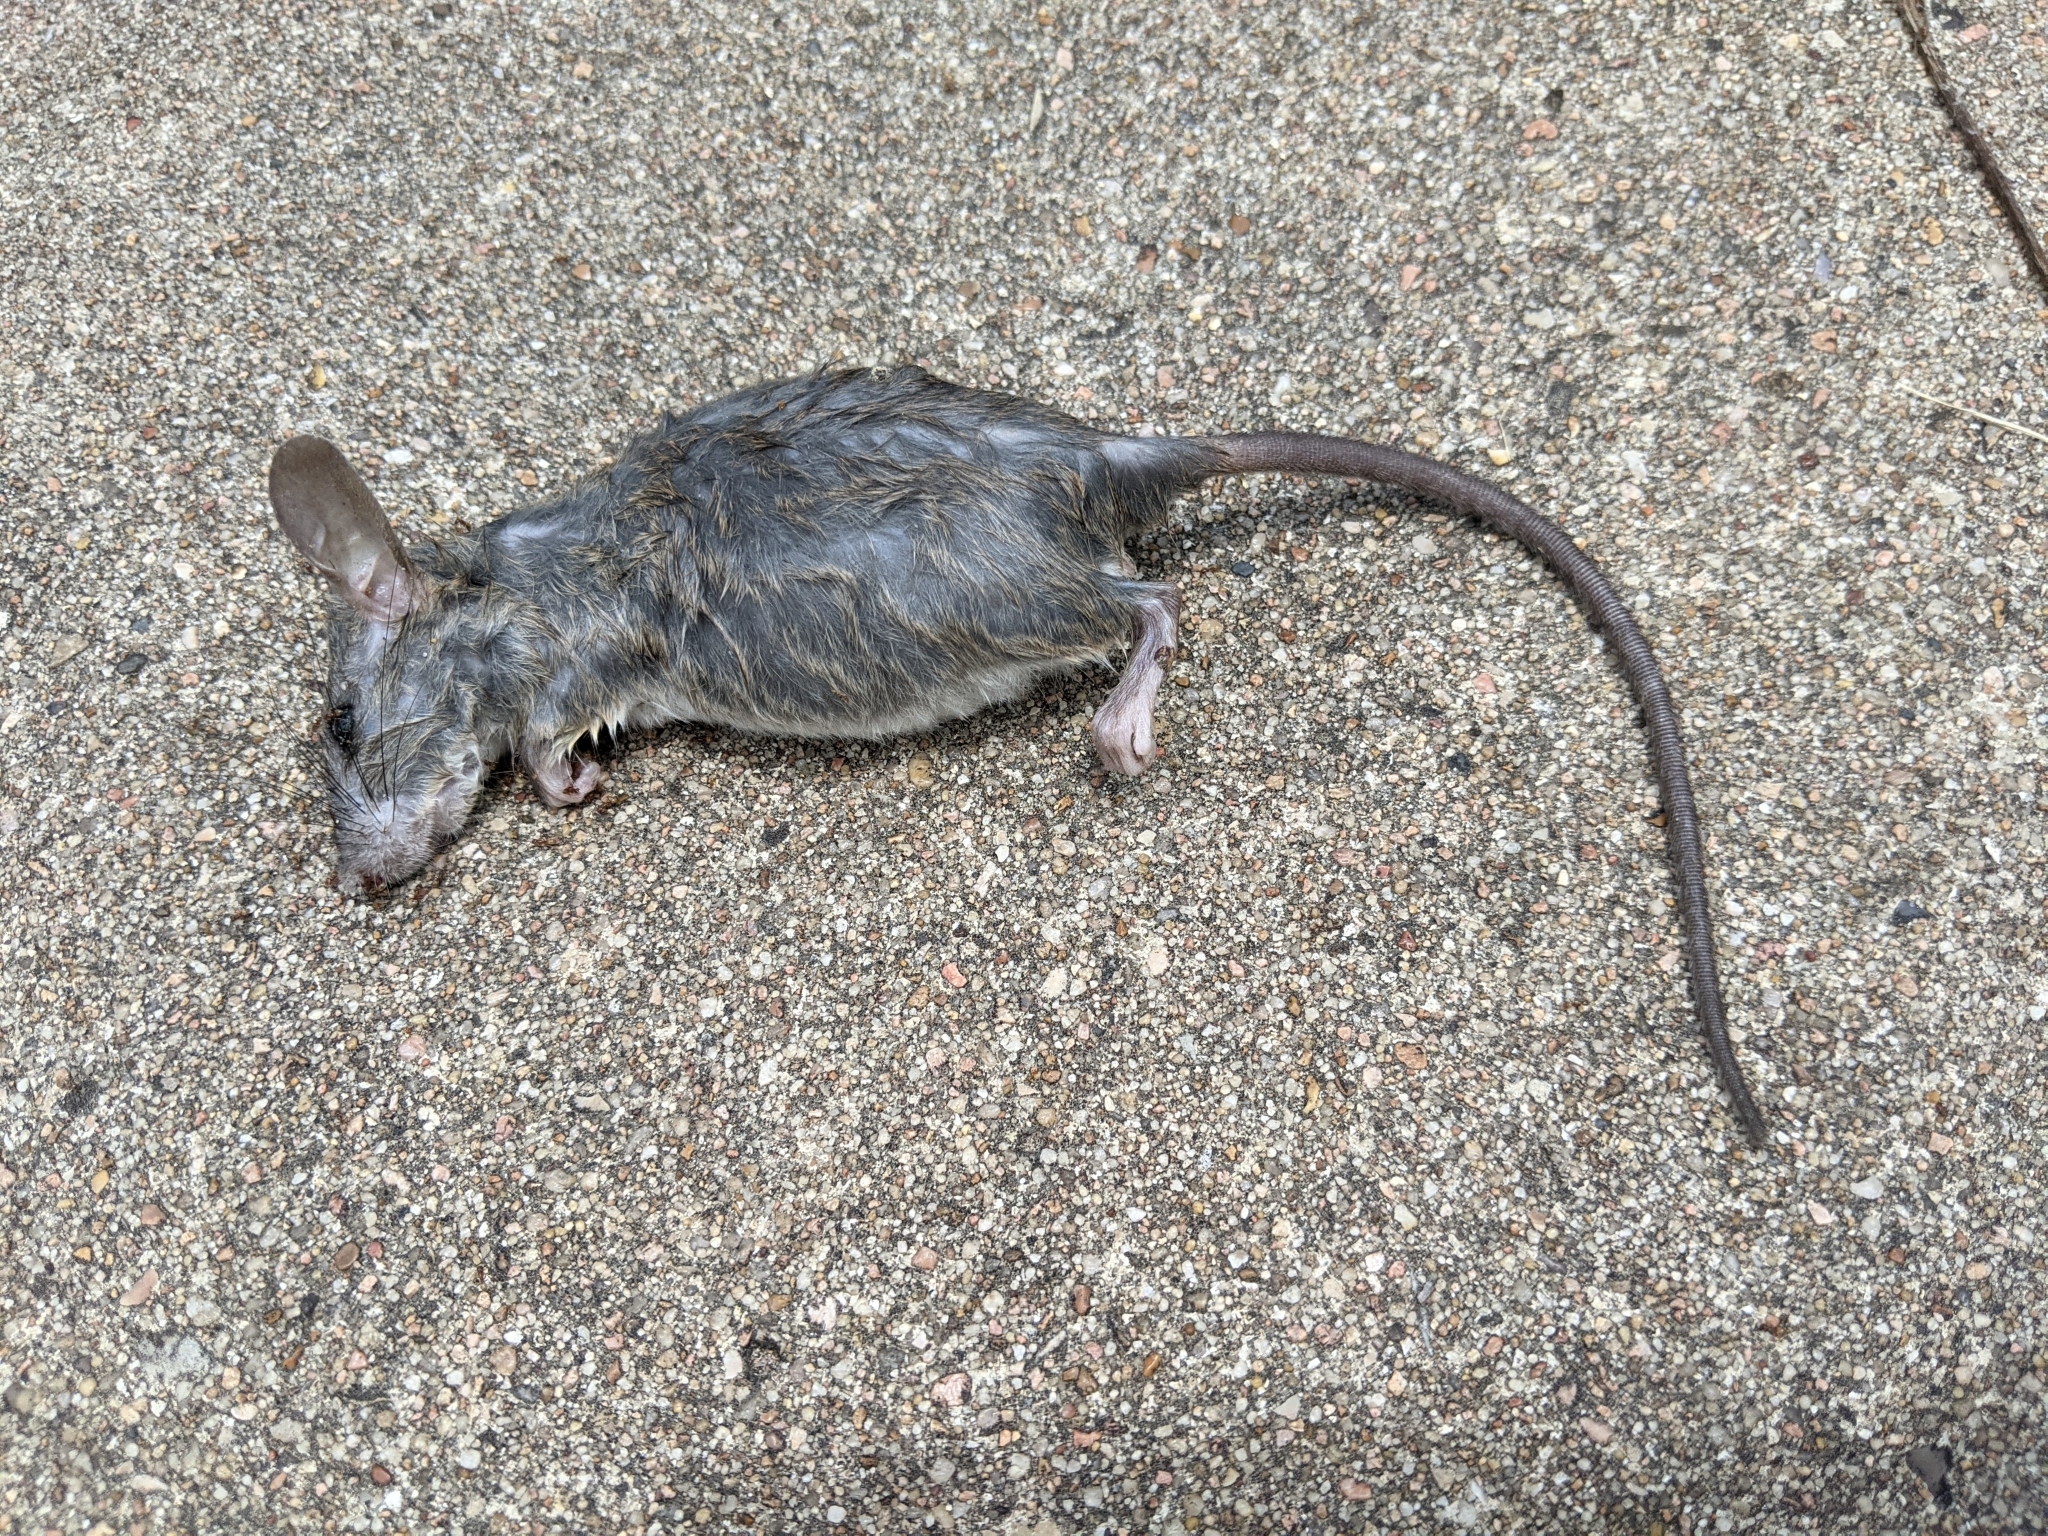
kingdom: Animalia
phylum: Chordata
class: Mammalia
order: Rodentia
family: Muridae
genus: Rattus
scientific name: Rattus rattus
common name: Black rat
